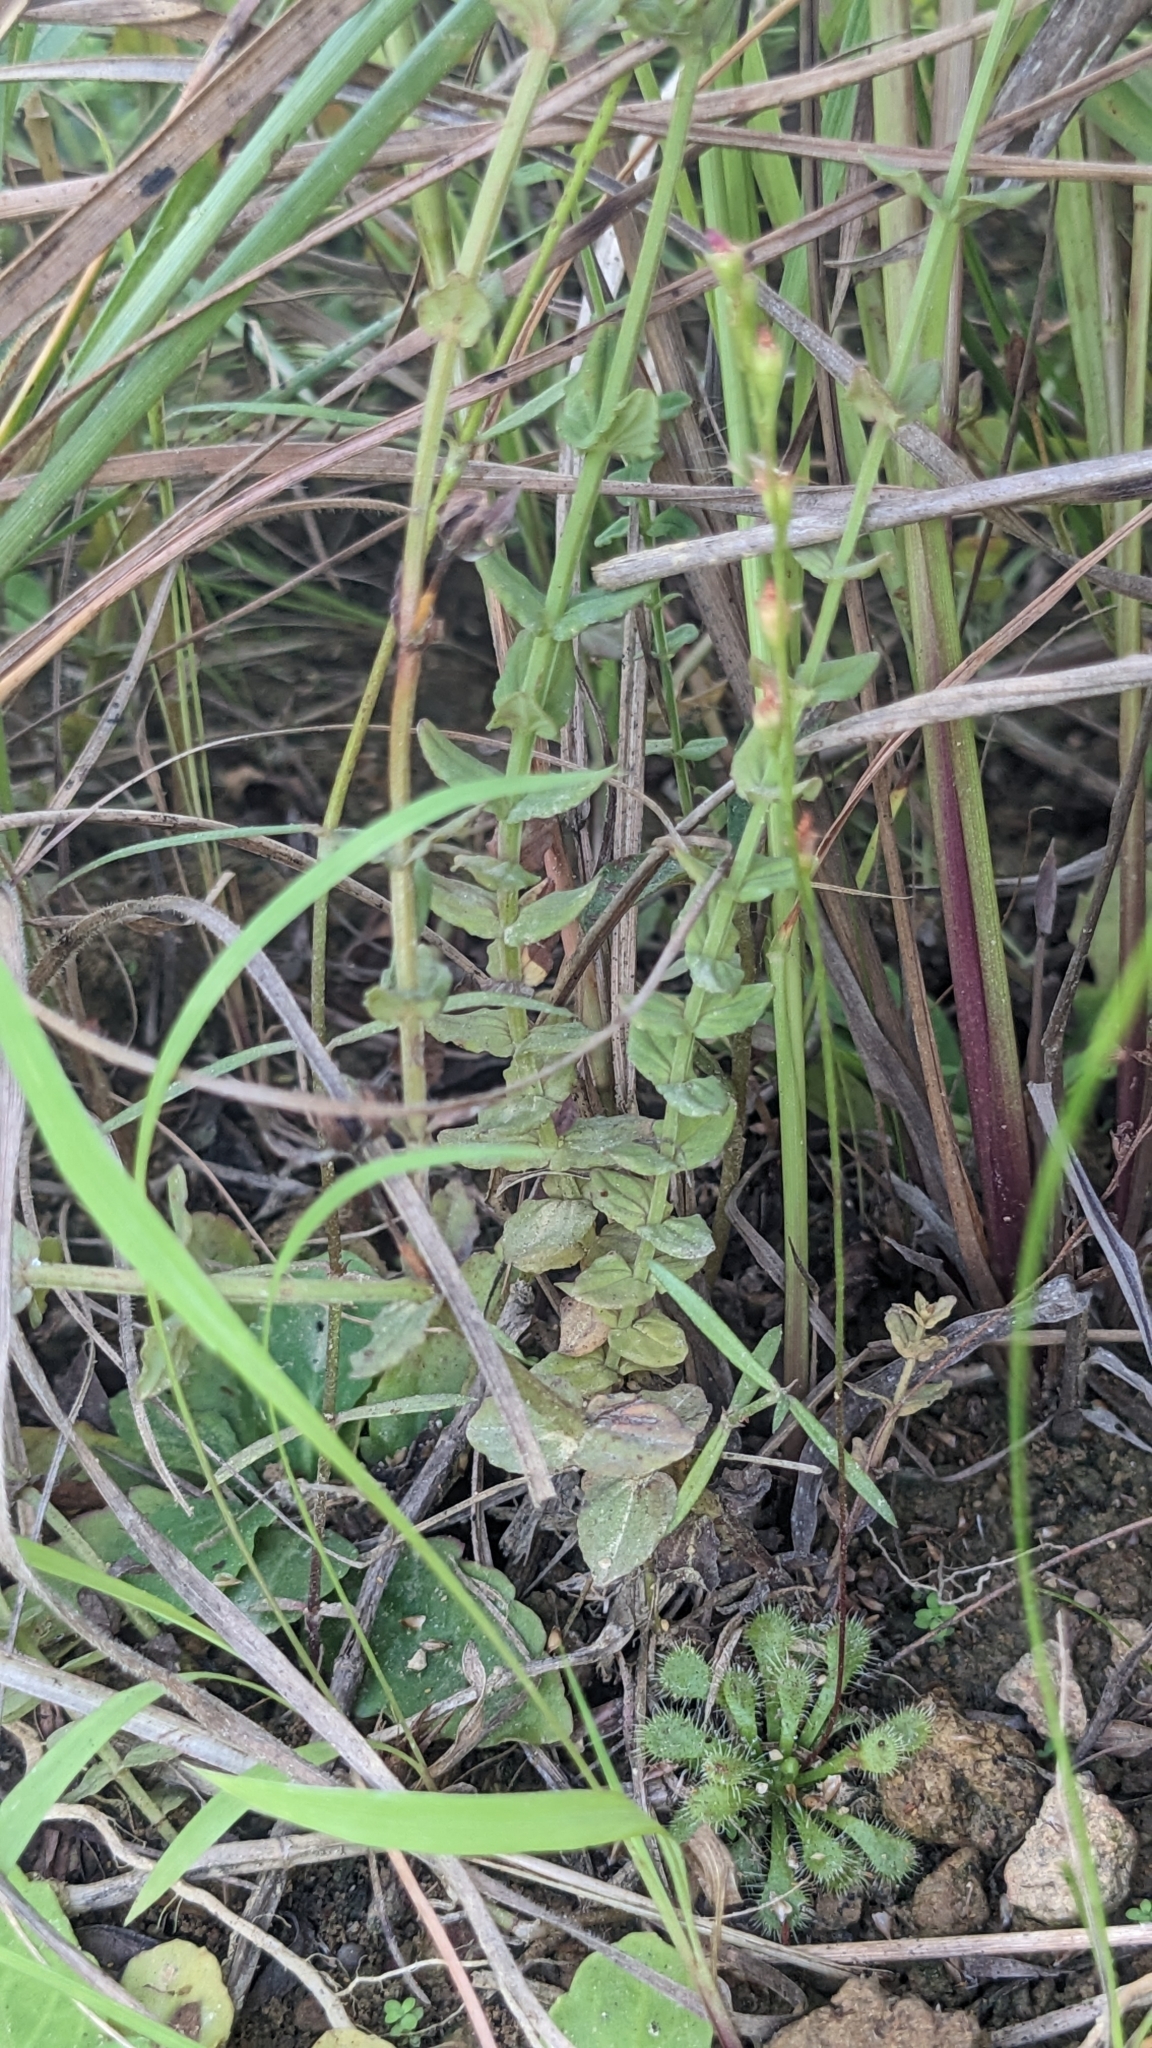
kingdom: Plantae
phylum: Tracheophyta
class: Magnoliopsida
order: Caryophyllales
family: Droseraceae
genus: Drosera
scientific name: Drosera spatulata
